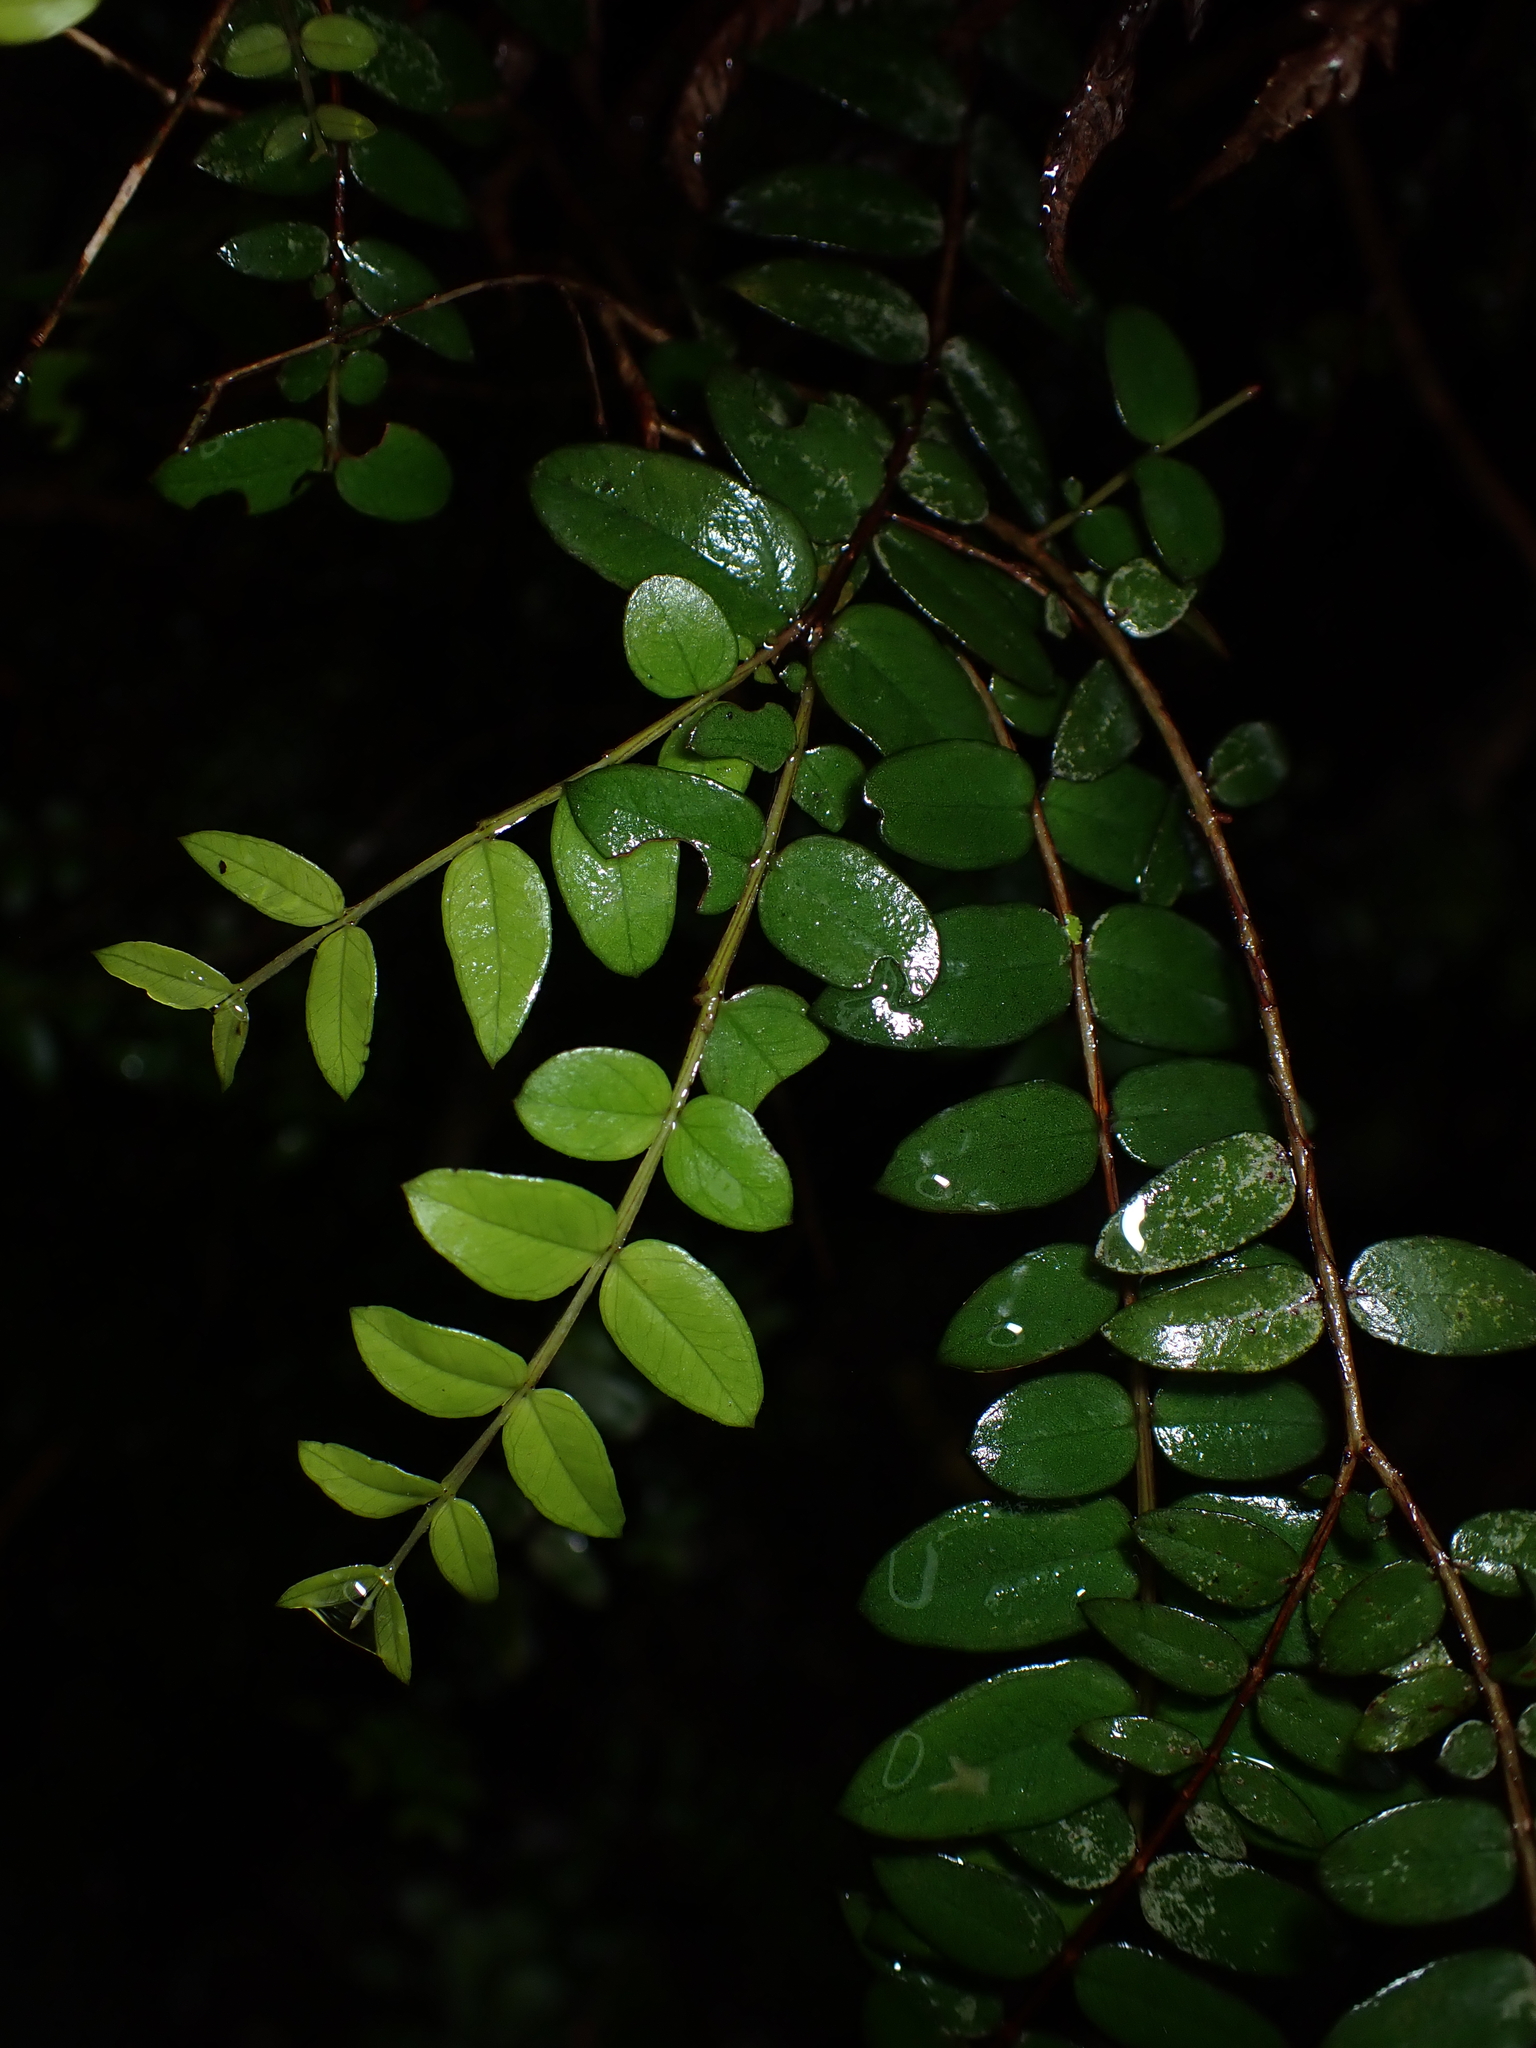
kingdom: Plantae
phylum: Tracheophyta
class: Magnoliopsida
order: Myrtales
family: Myrtaceae
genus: Metrosideros
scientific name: Metrosideros diffusa
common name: Small ratavine
